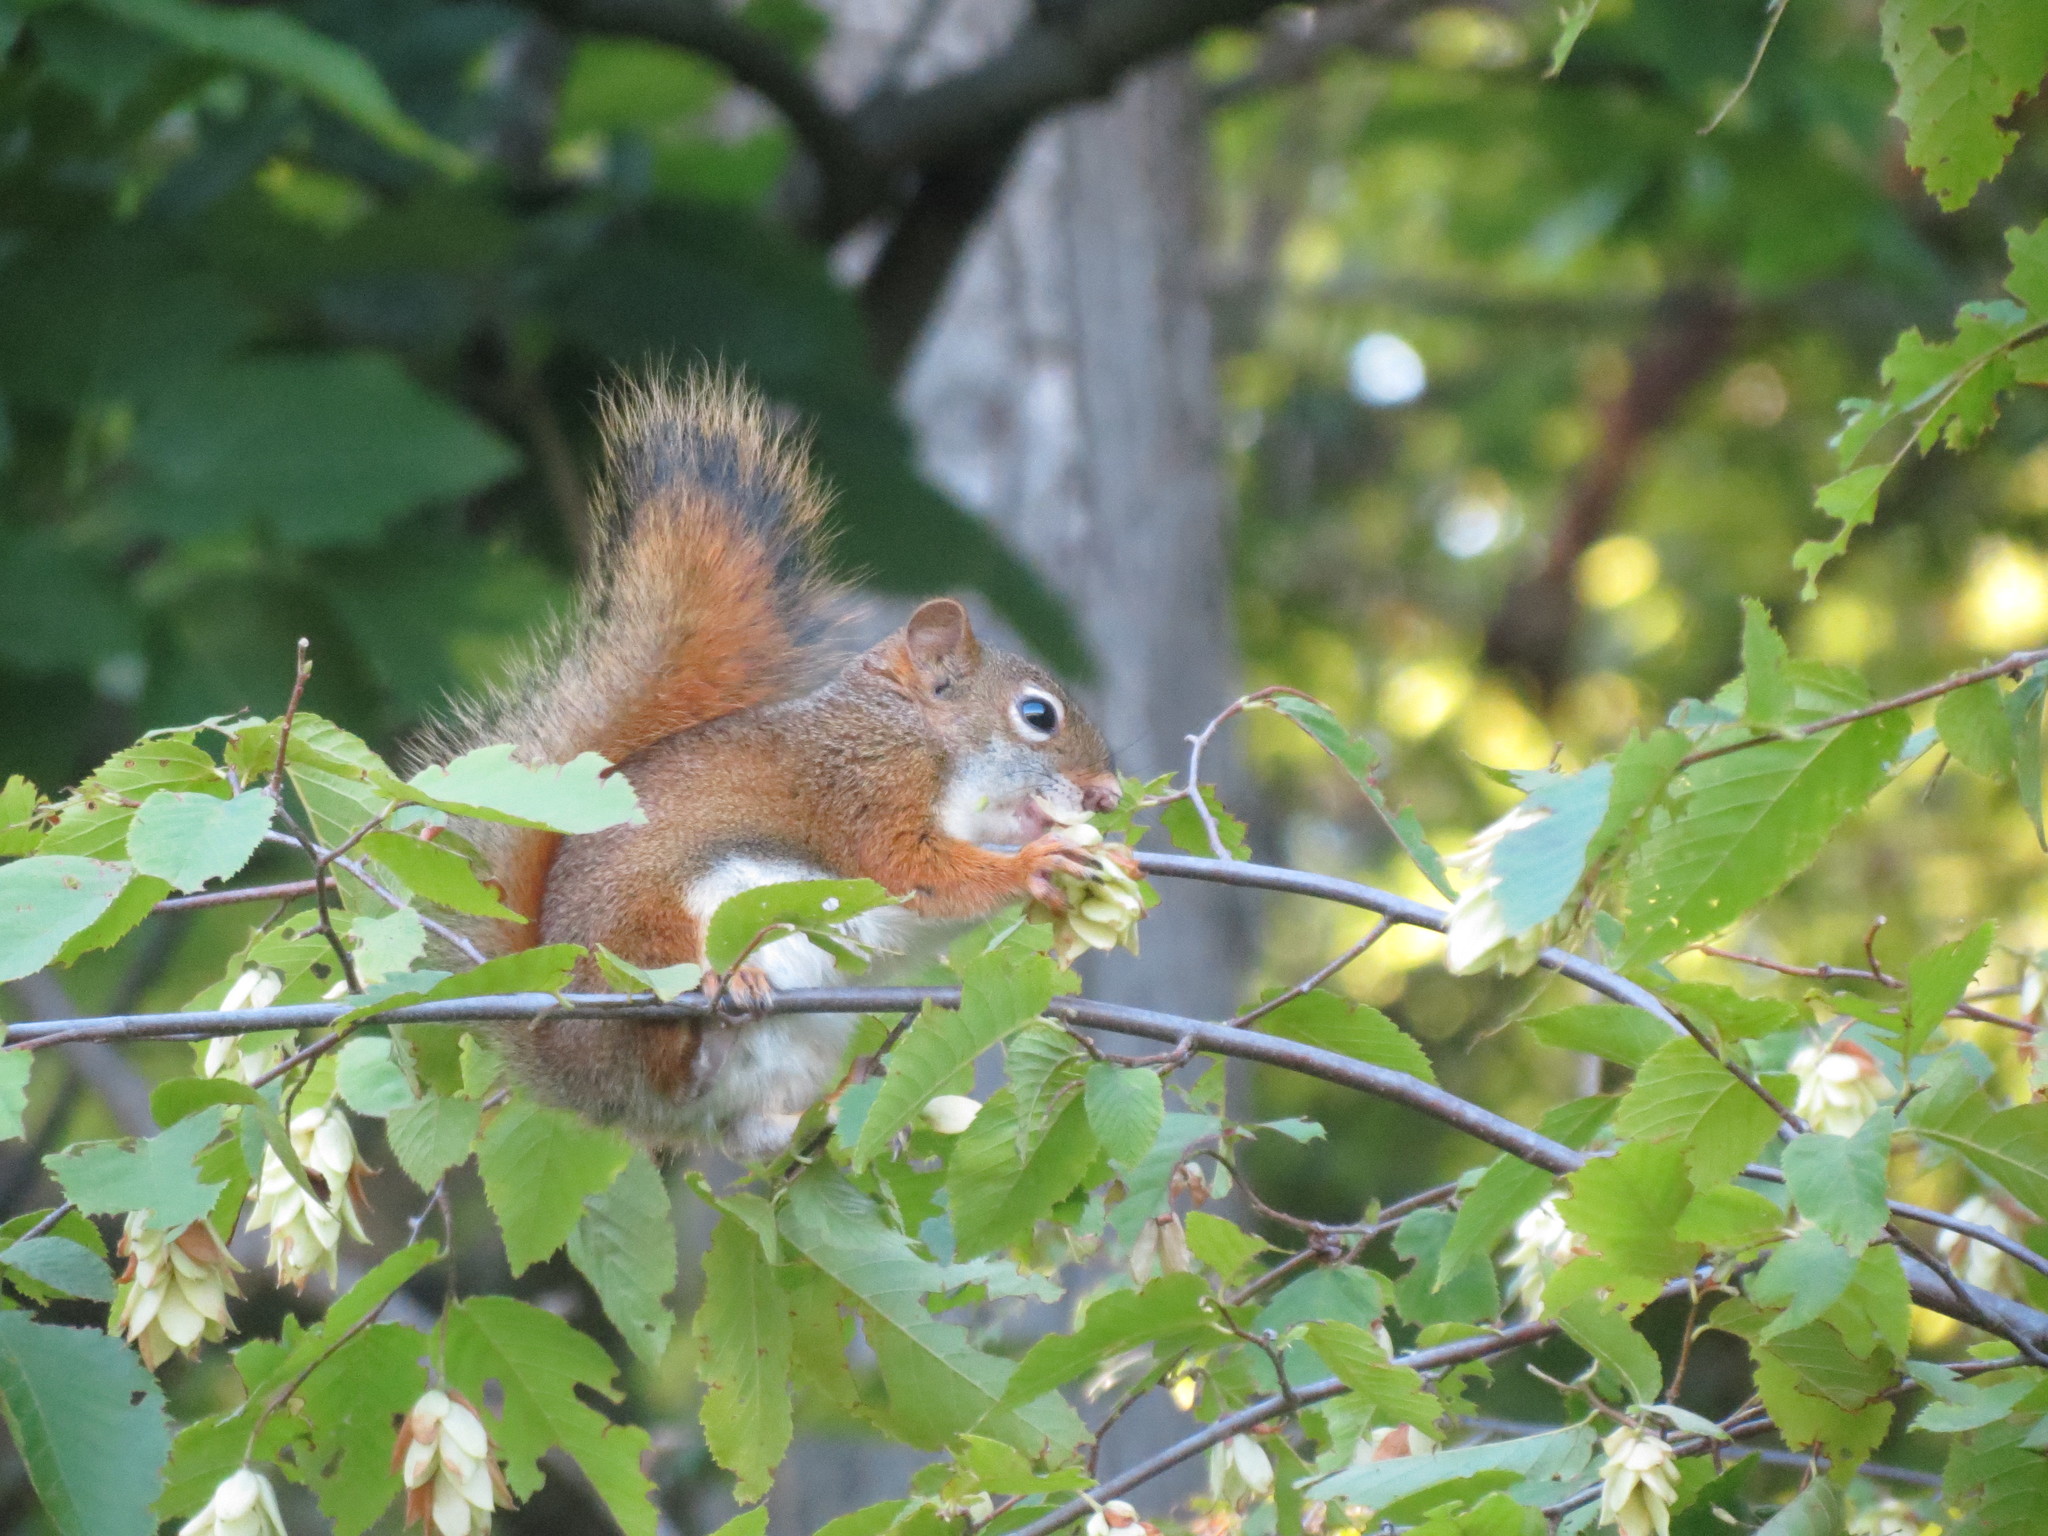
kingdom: Animalia
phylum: Chordata
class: Mammalia
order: Rodentia
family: Sciuridae
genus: Tamiasciurus
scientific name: Tamiasciurus hudsonicus
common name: Red squirrel
